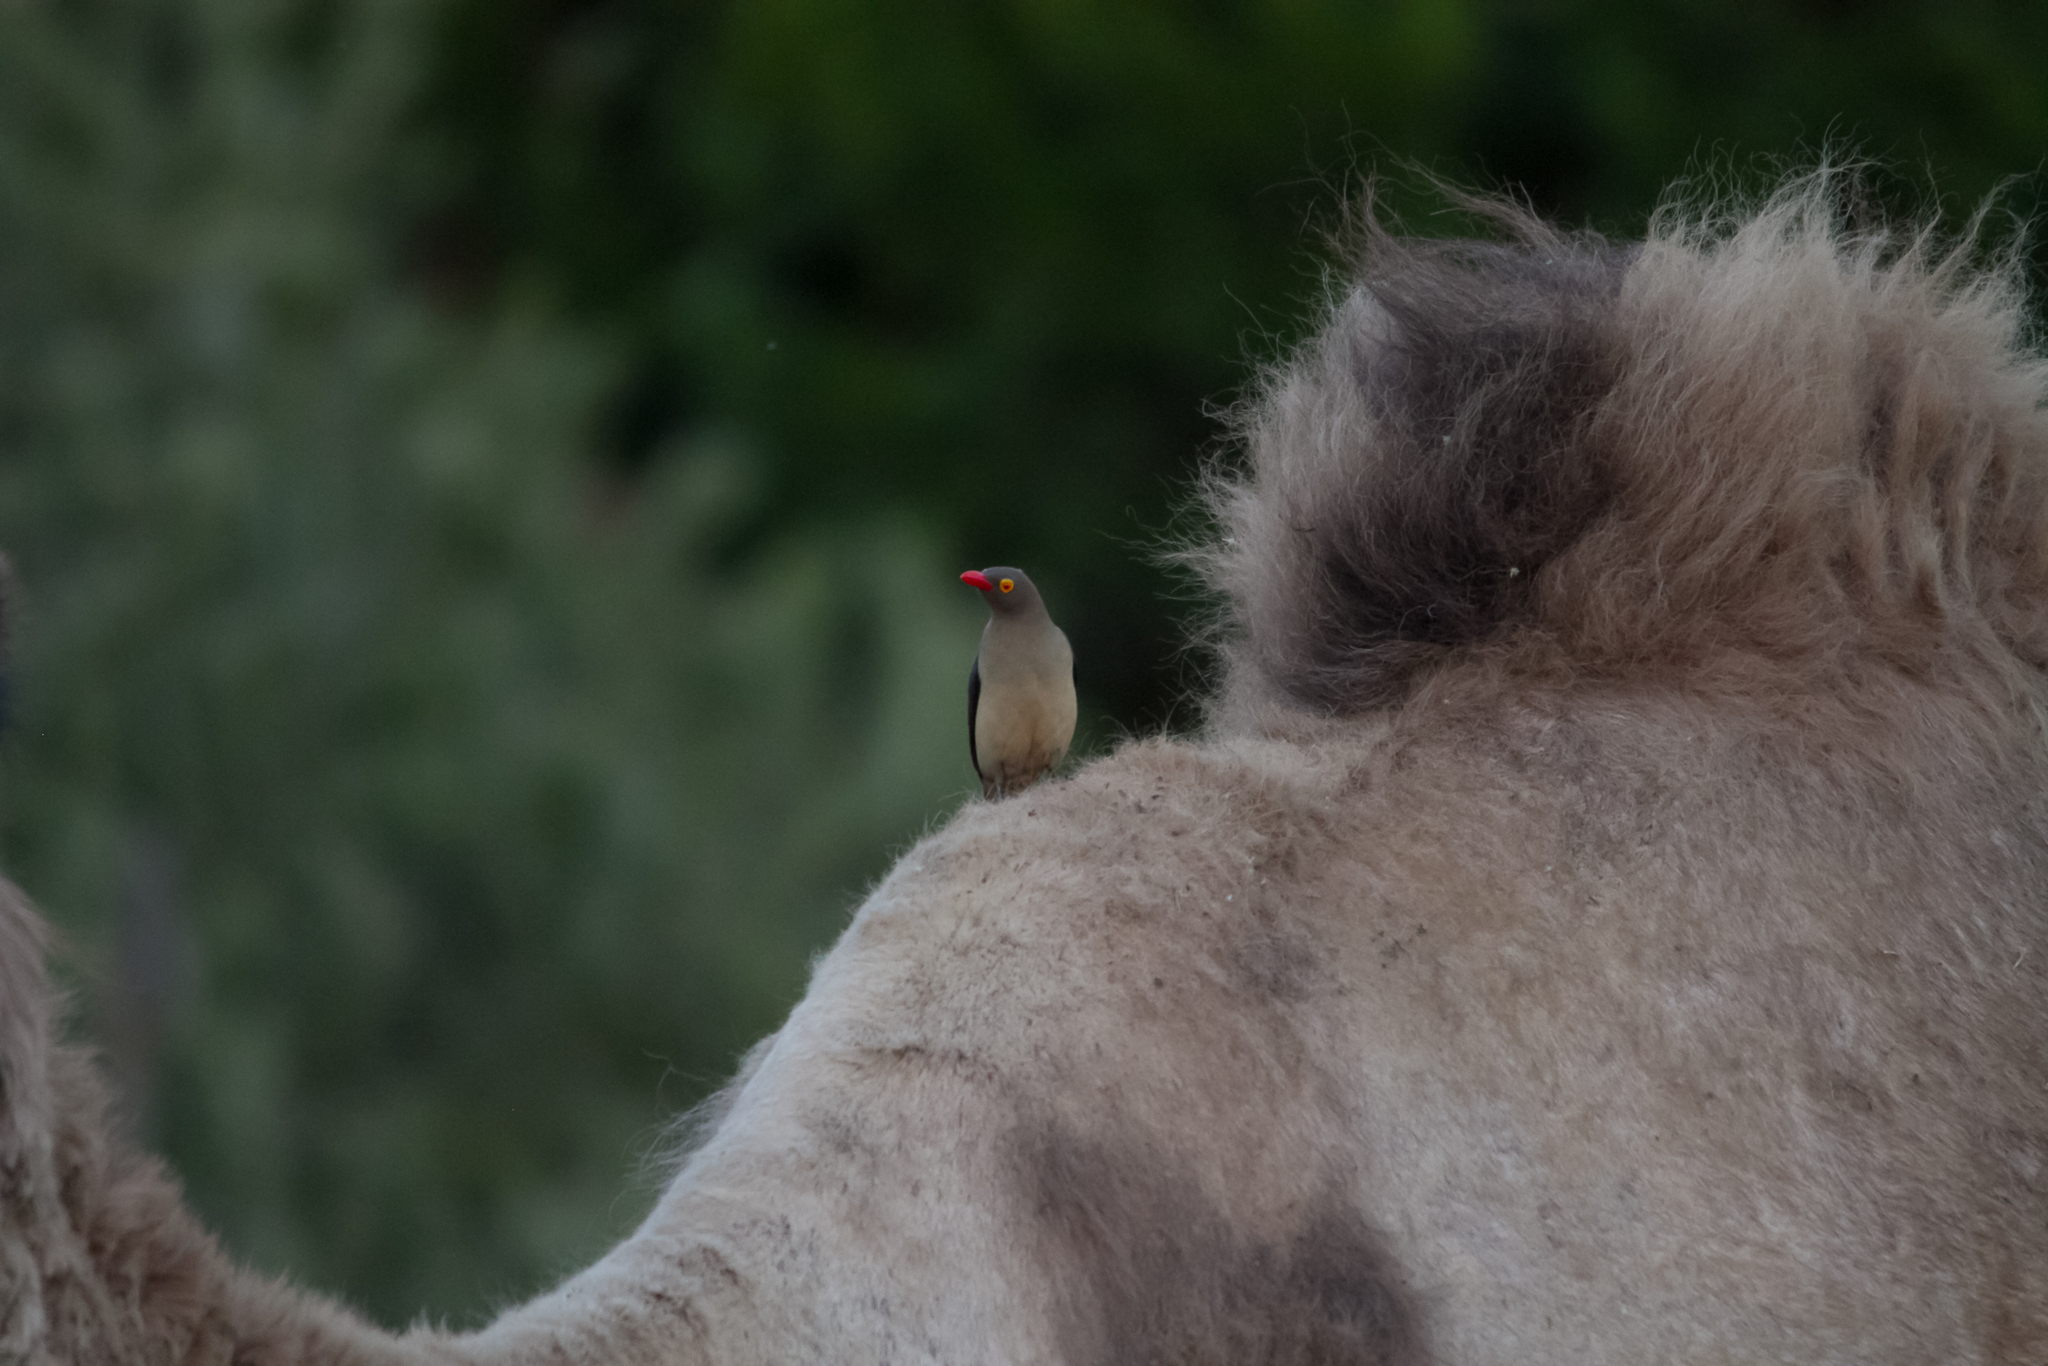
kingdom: Animalia
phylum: Chordata
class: Aves
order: Passeriformes
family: Buphagidae
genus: Buphagus
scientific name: Buphagus erythrorhynchus
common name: Red-billed oxpecker
